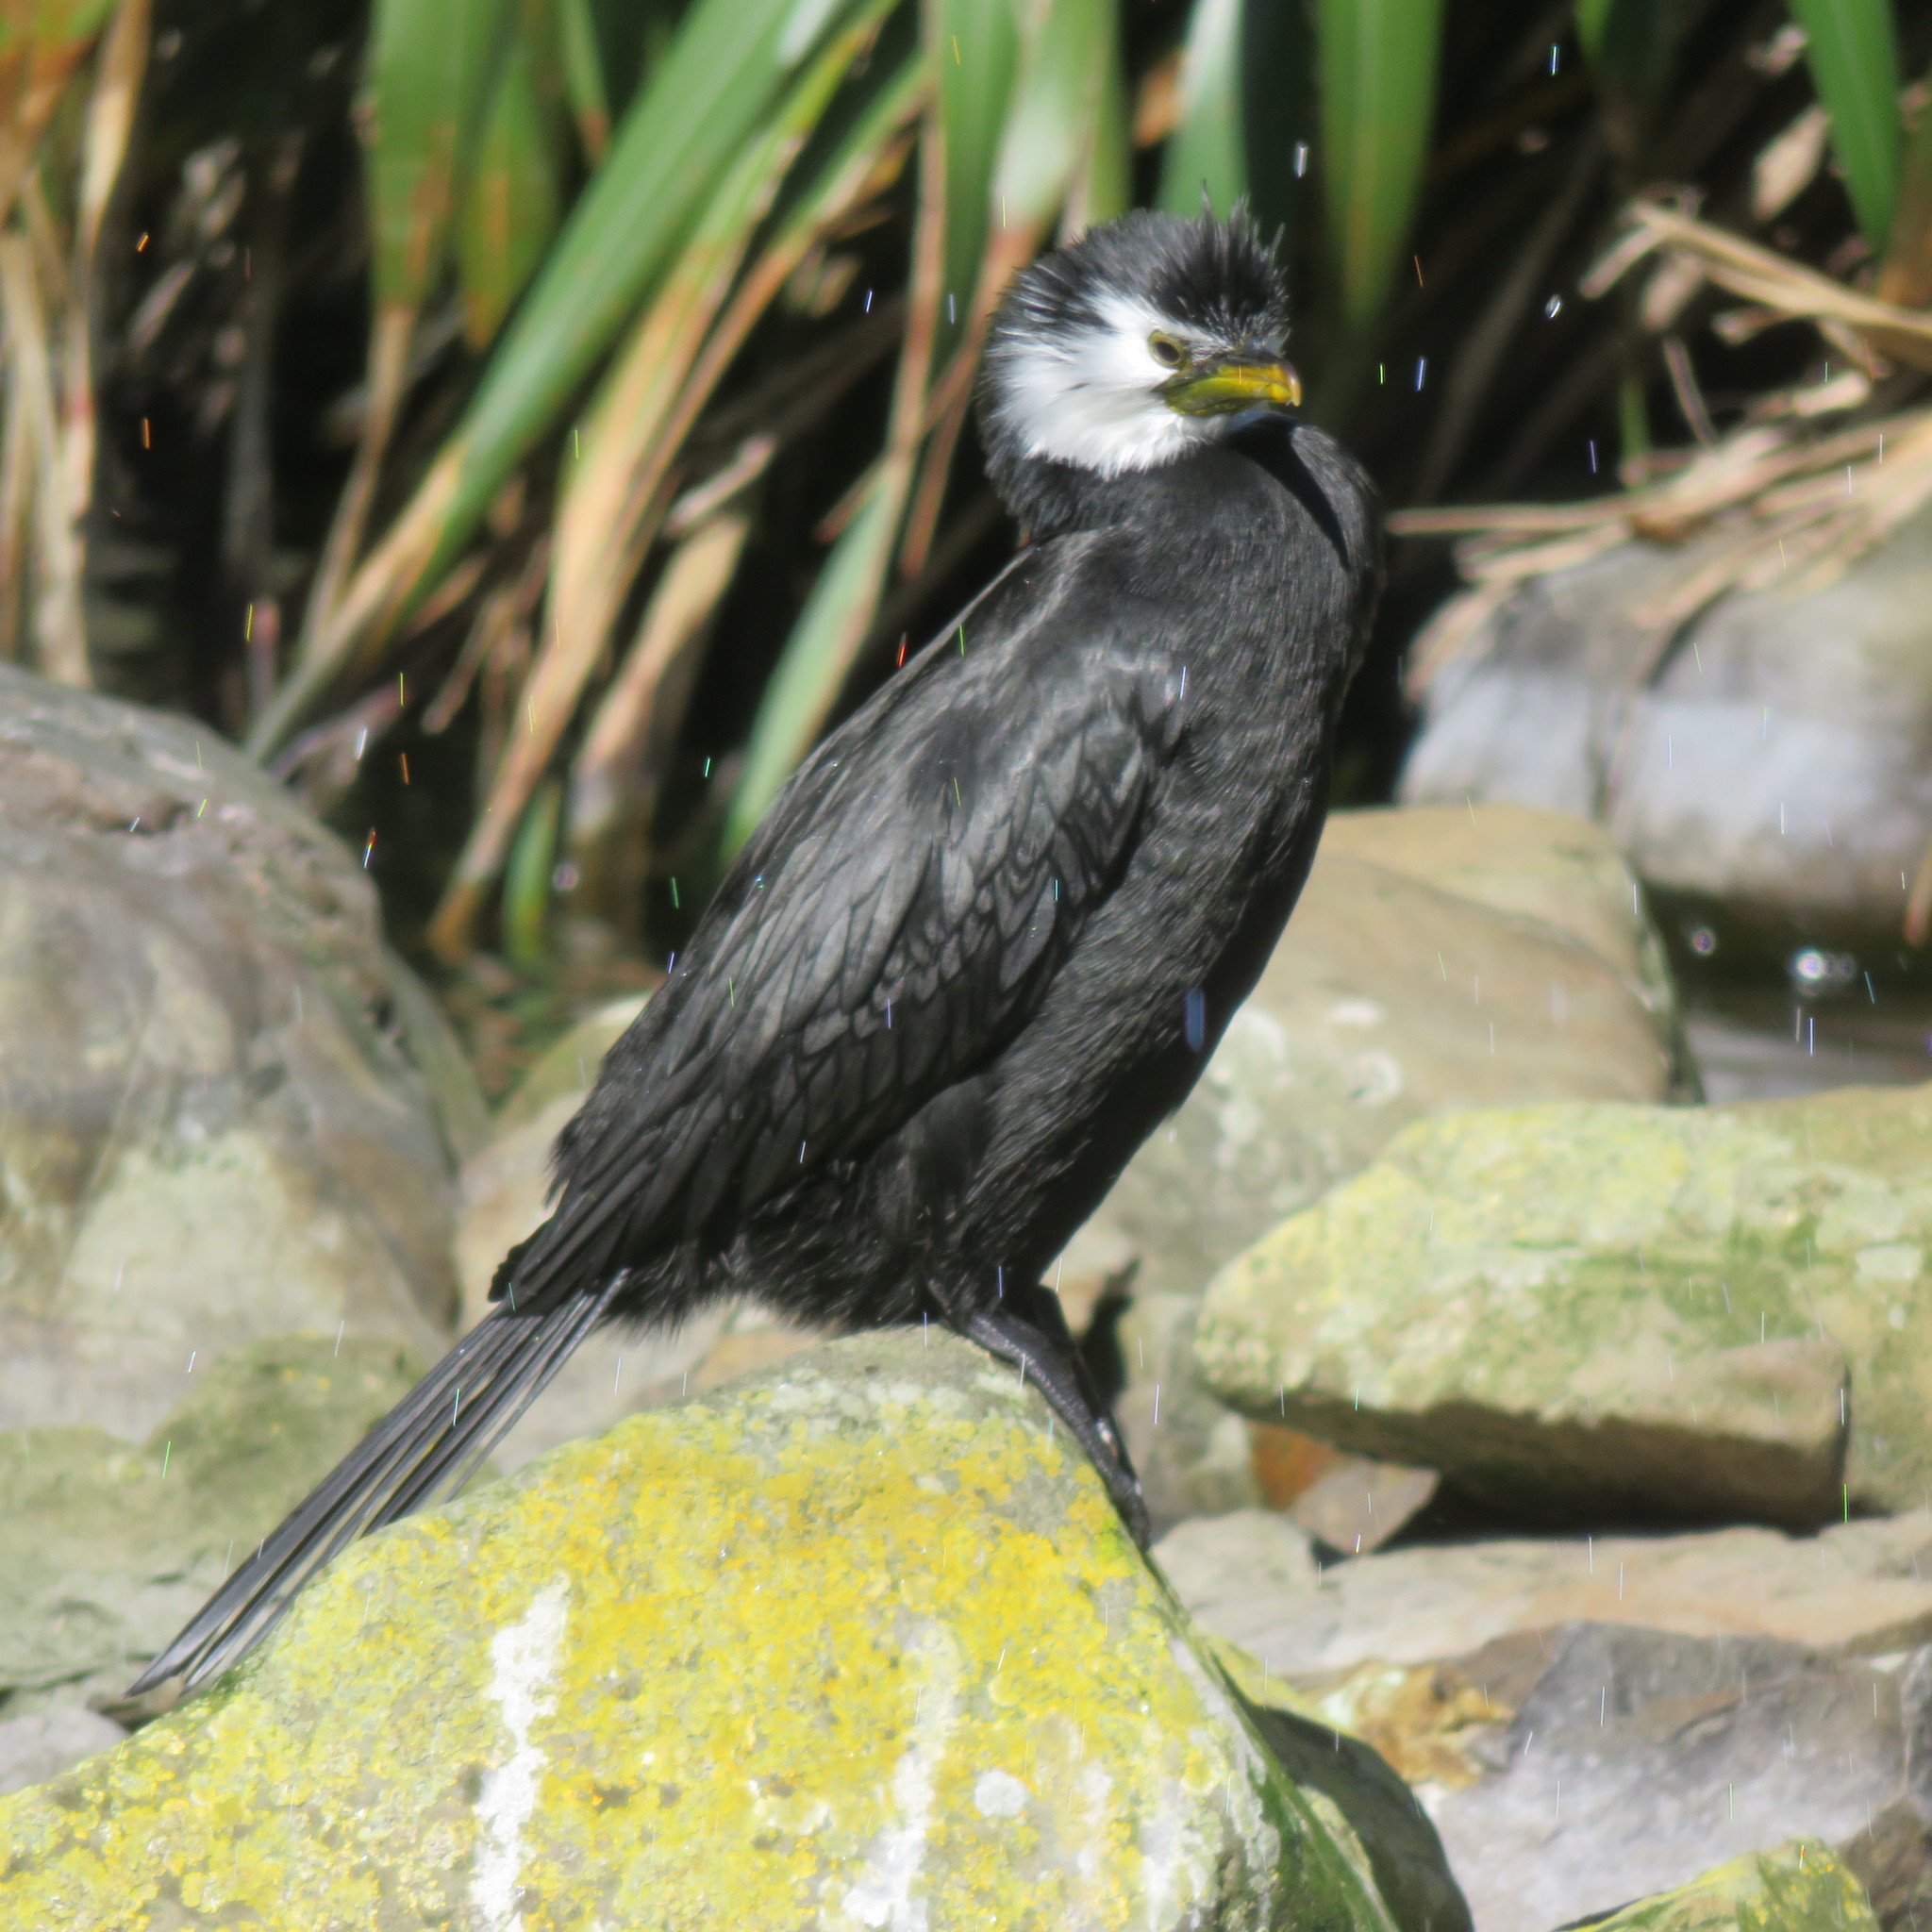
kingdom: Animalia
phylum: Chordata
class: Aves
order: Suliformes
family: Phalacrocoracidae
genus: Microcarbo
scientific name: Microcarbo melanoleucos
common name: Little pied cormorant
